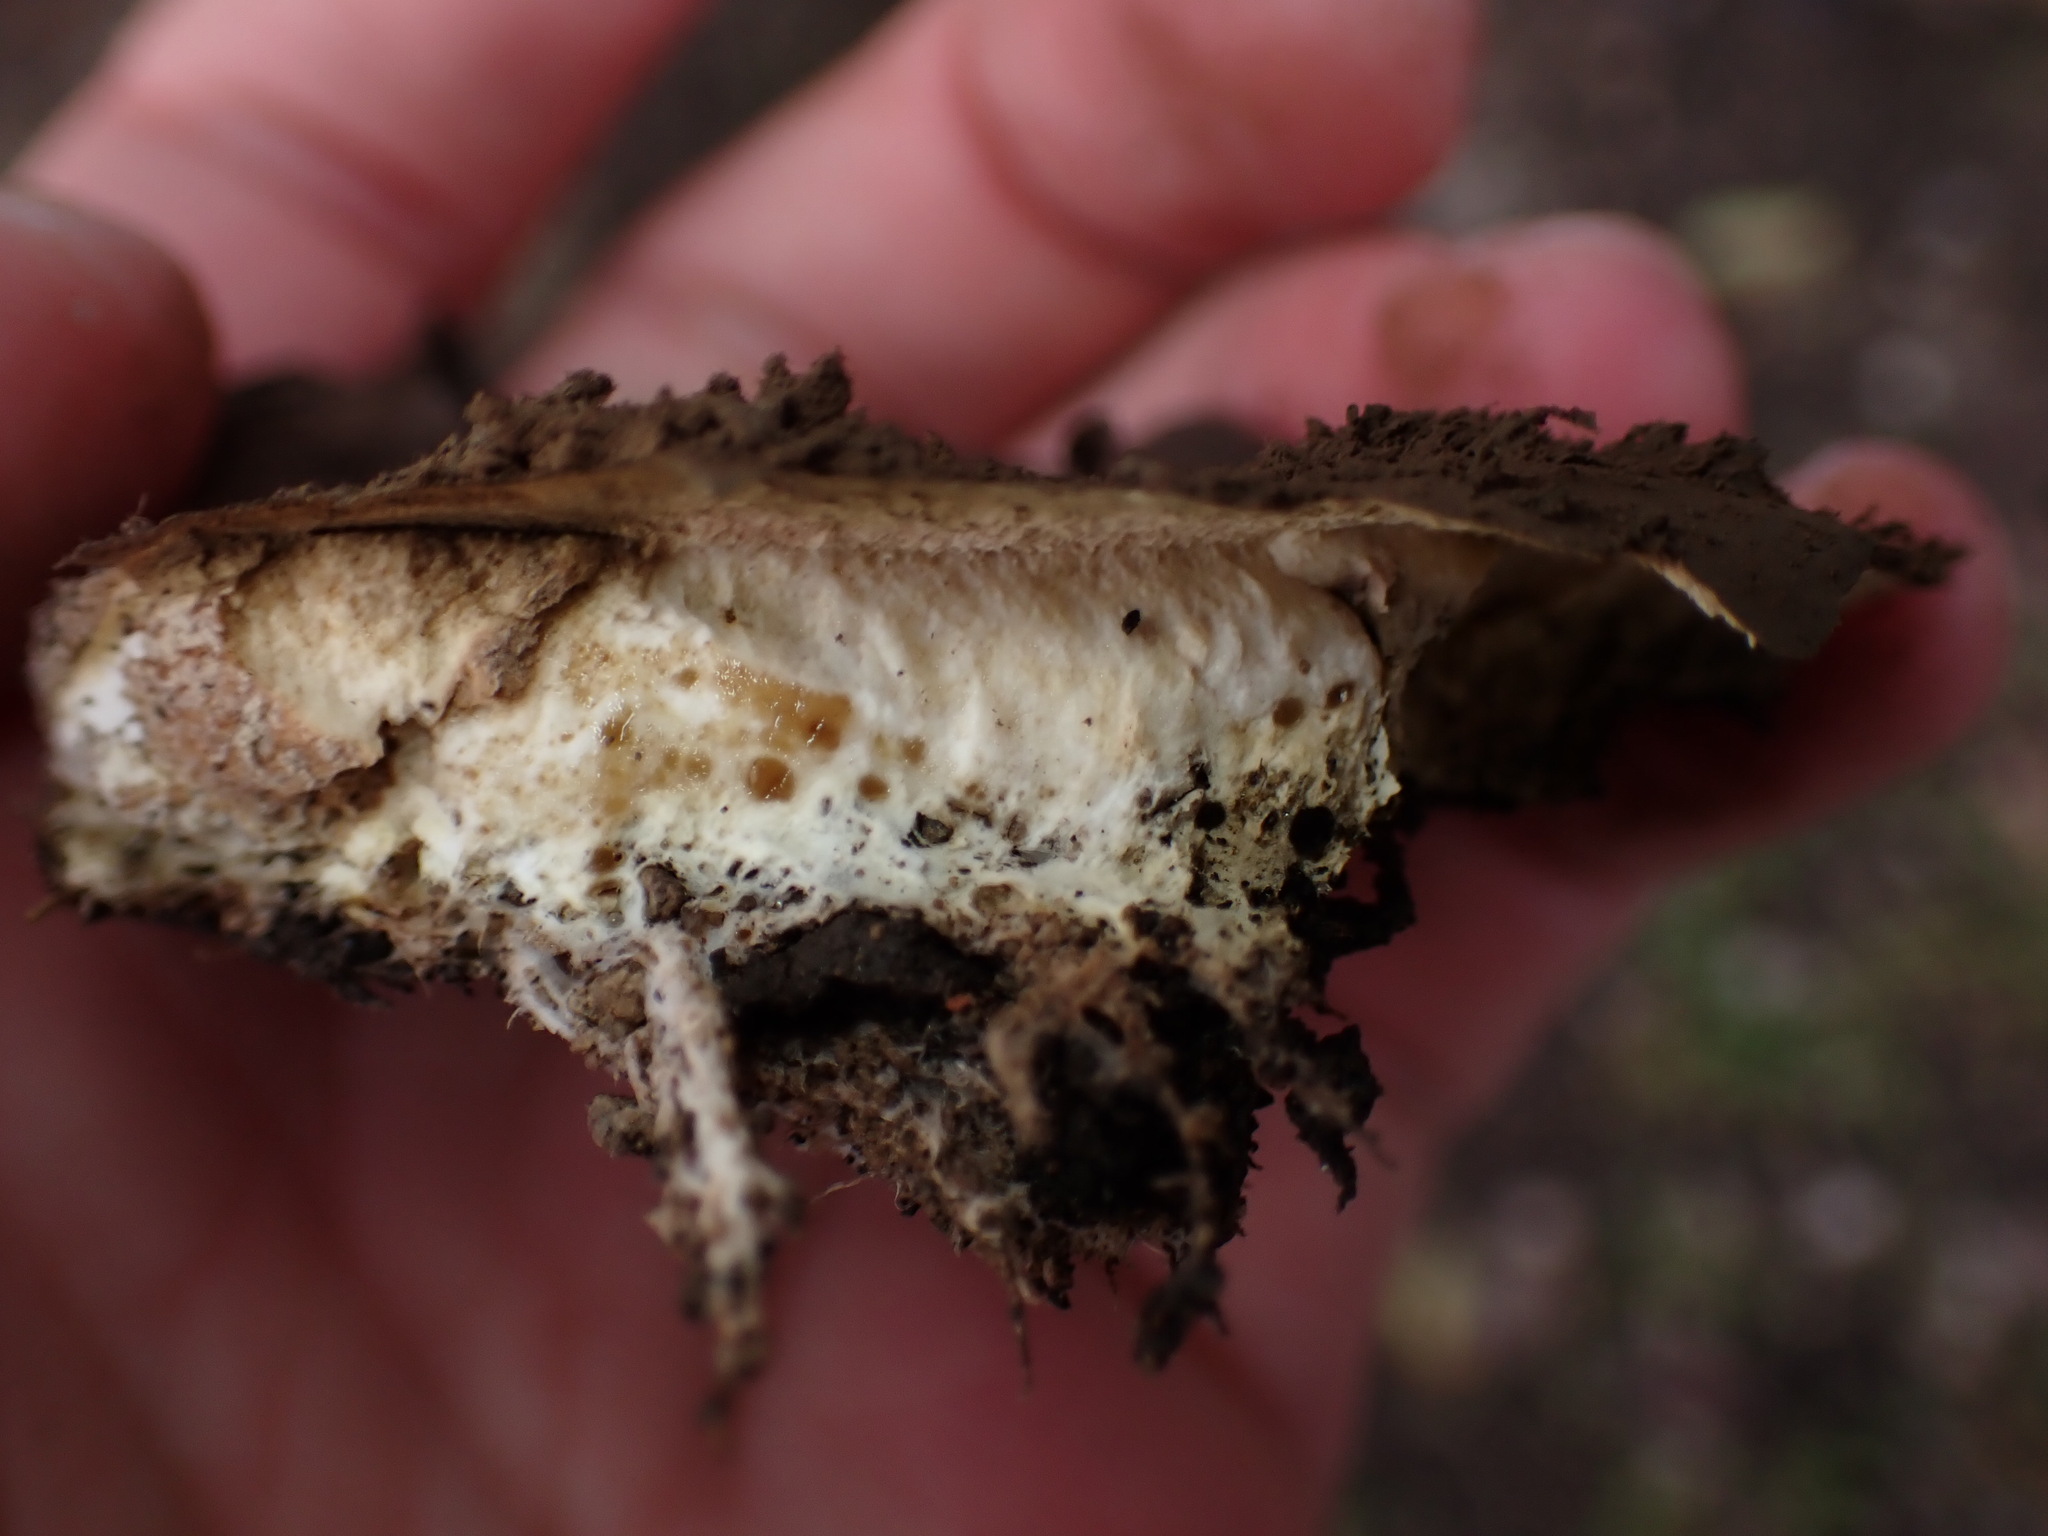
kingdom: Fungi
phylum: Basidiomycota
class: Agaricomycetes
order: Boletales
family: Sclerodermataceae
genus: Scleroderma
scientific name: Scleroderma polyrhizum
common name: Many-rooted earthball
